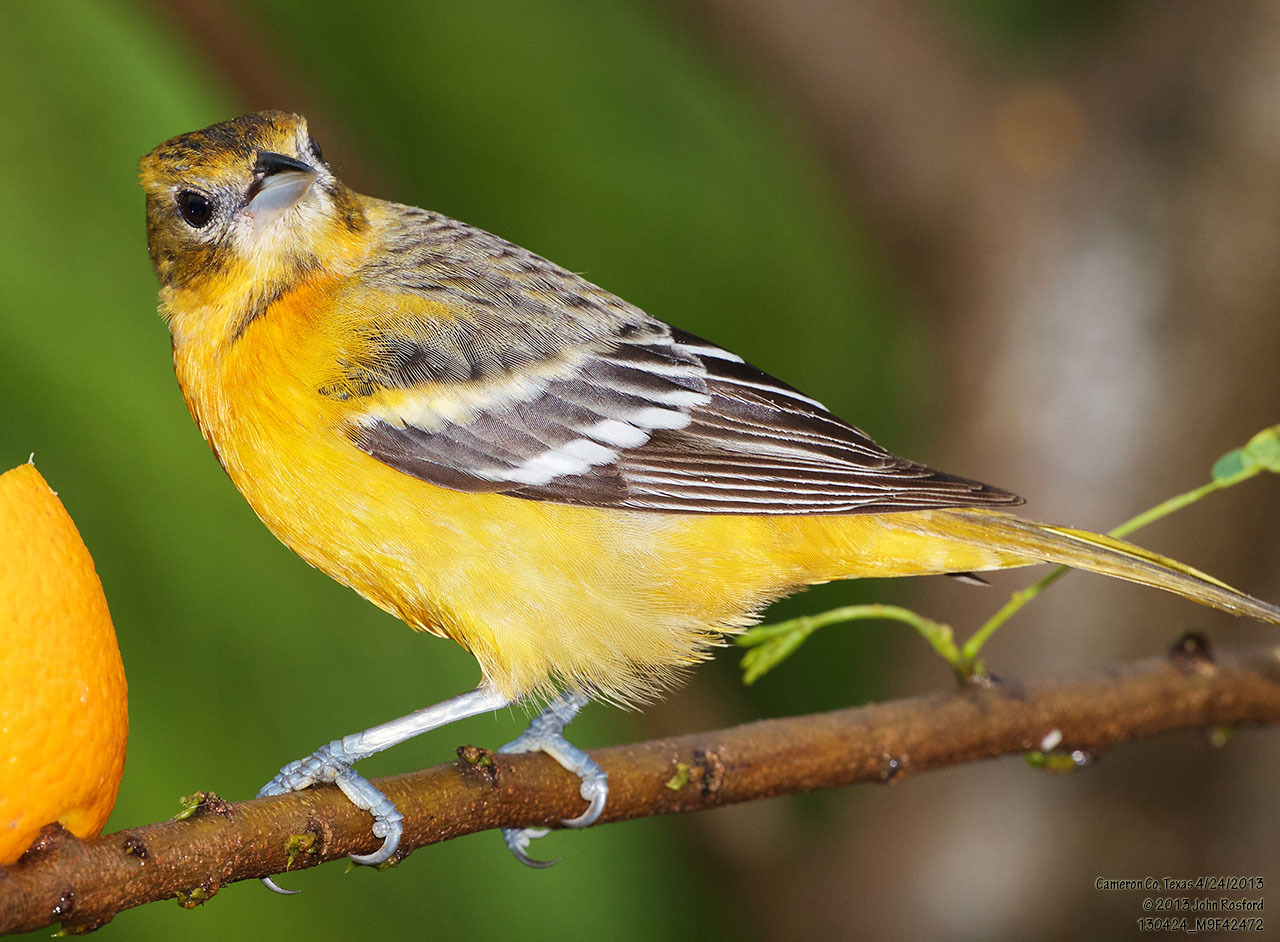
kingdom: Animalia
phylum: Chordata
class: Aves
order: Passeriformes
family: Icteridae
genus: Icterus
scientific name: Icterus galbula
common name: Baltimore oriole
